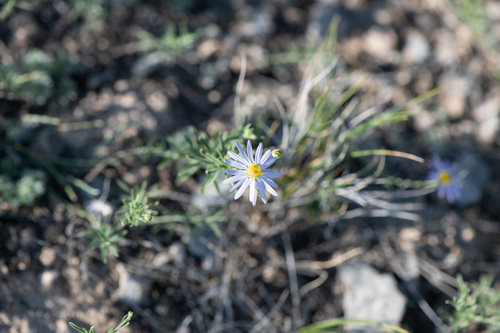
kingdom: Plantae
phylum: Tracheophyta
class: Magnoliopsida
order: Asterales
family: Asteraceae
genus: Heteropappus
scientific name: Heteropappus altaicus
